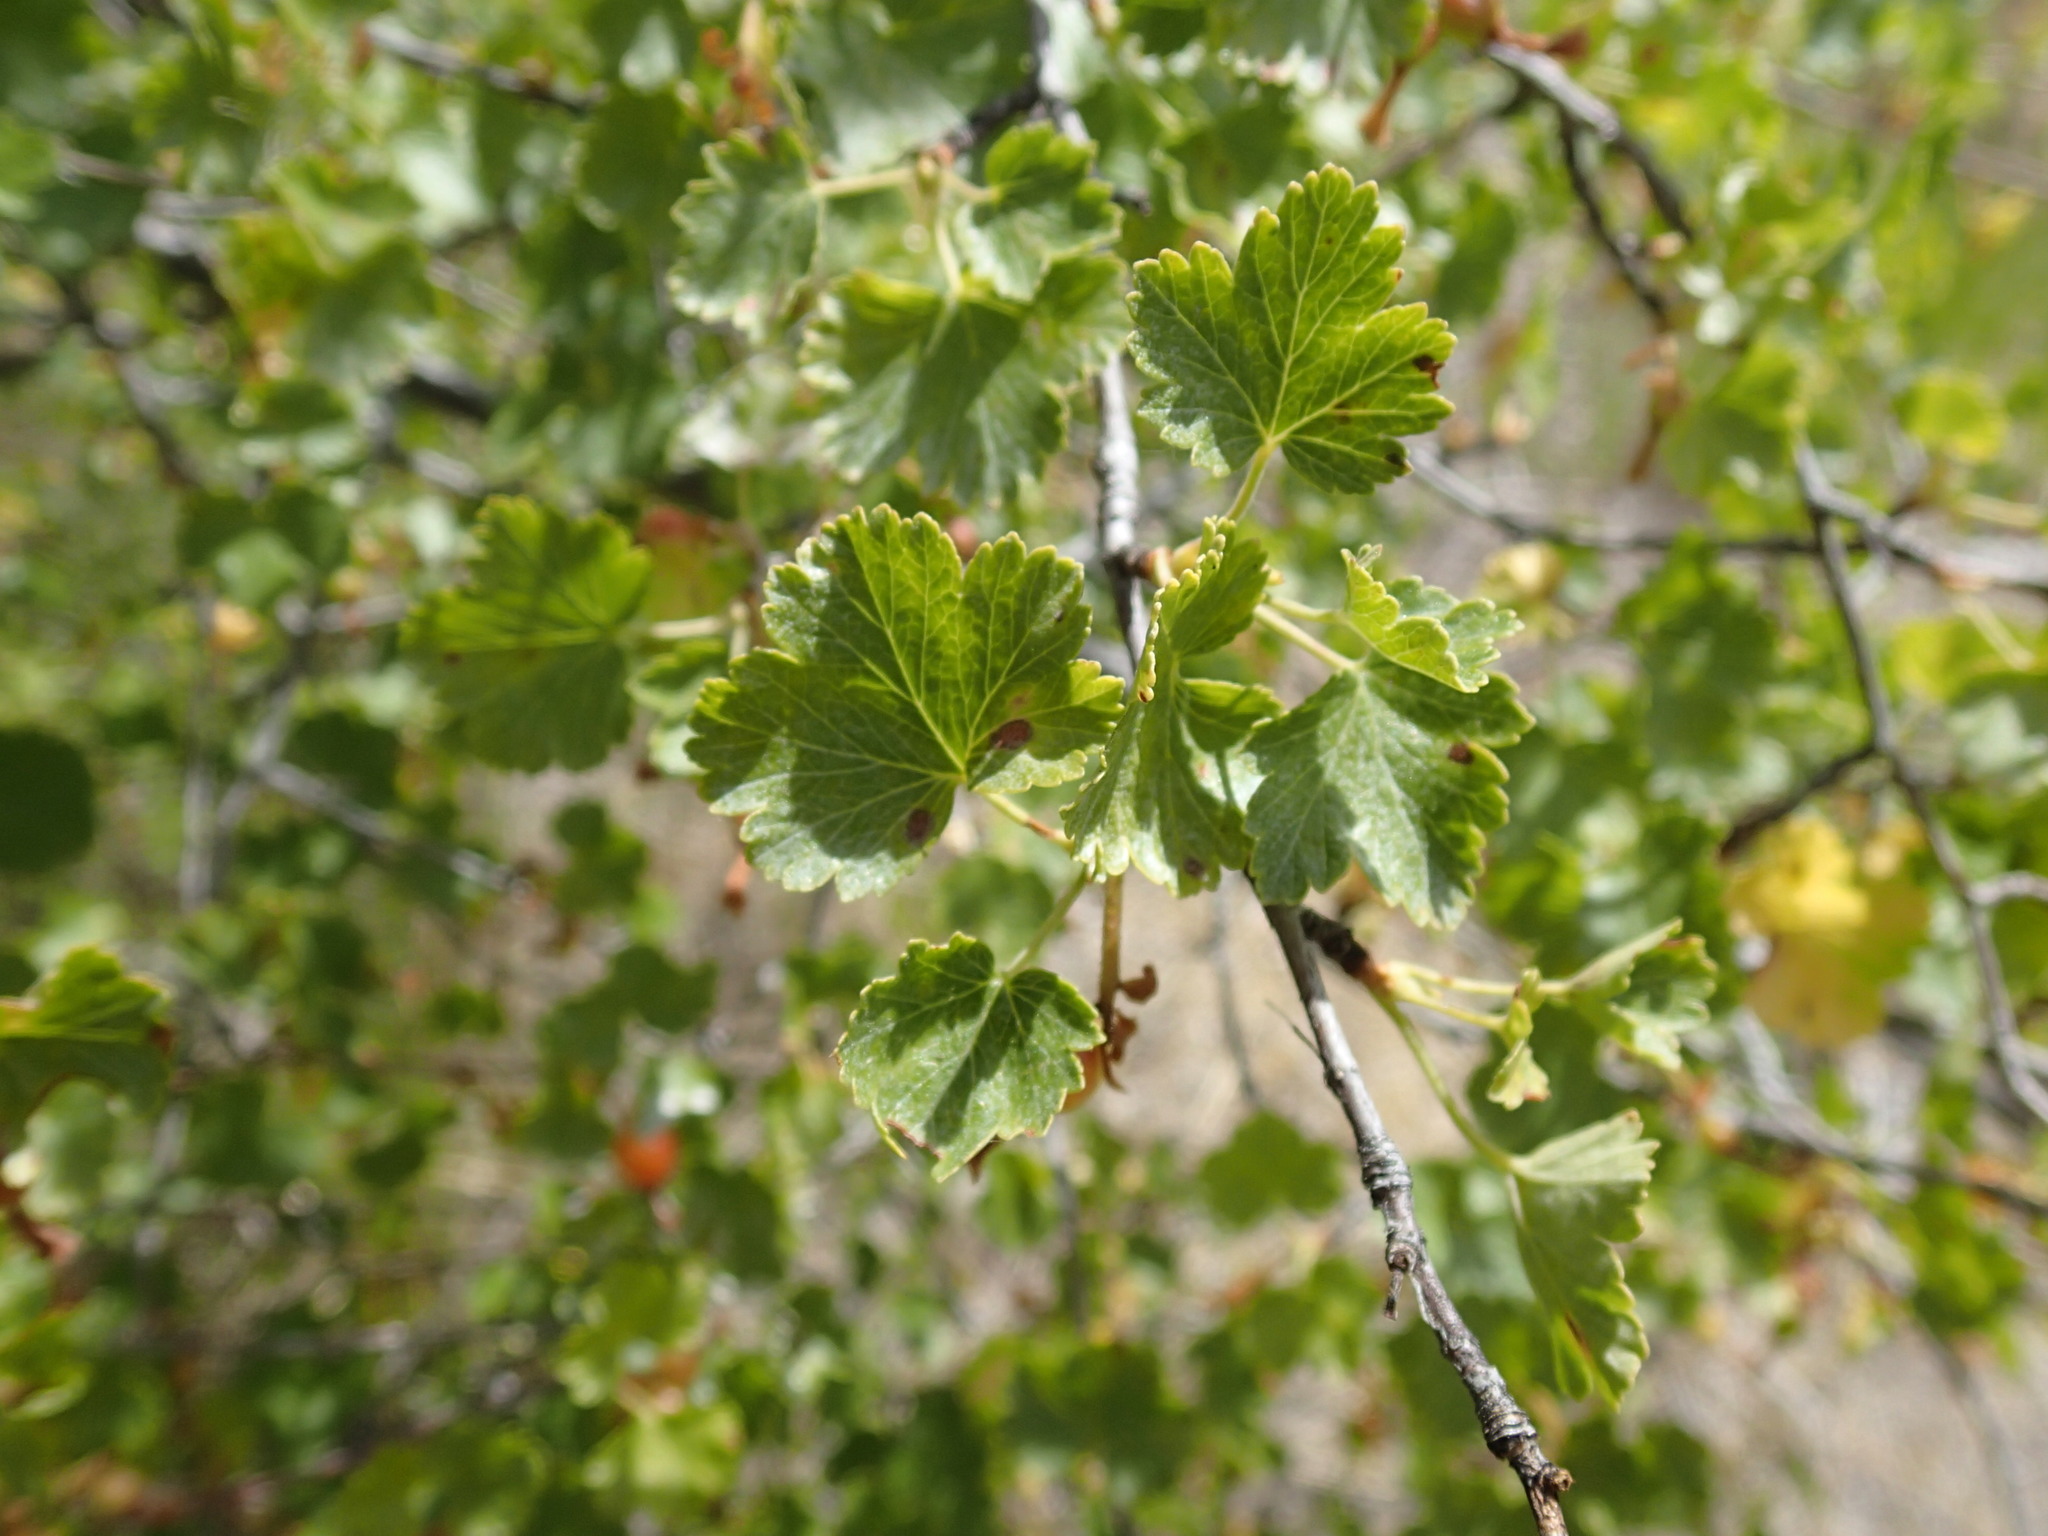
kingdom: Plantae
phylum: Tracheophyta
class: Magnoliopsida
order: Saxifragales
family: Grossulariaceae
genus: Ribes
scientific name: Ribes cereum
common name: Wax currant
